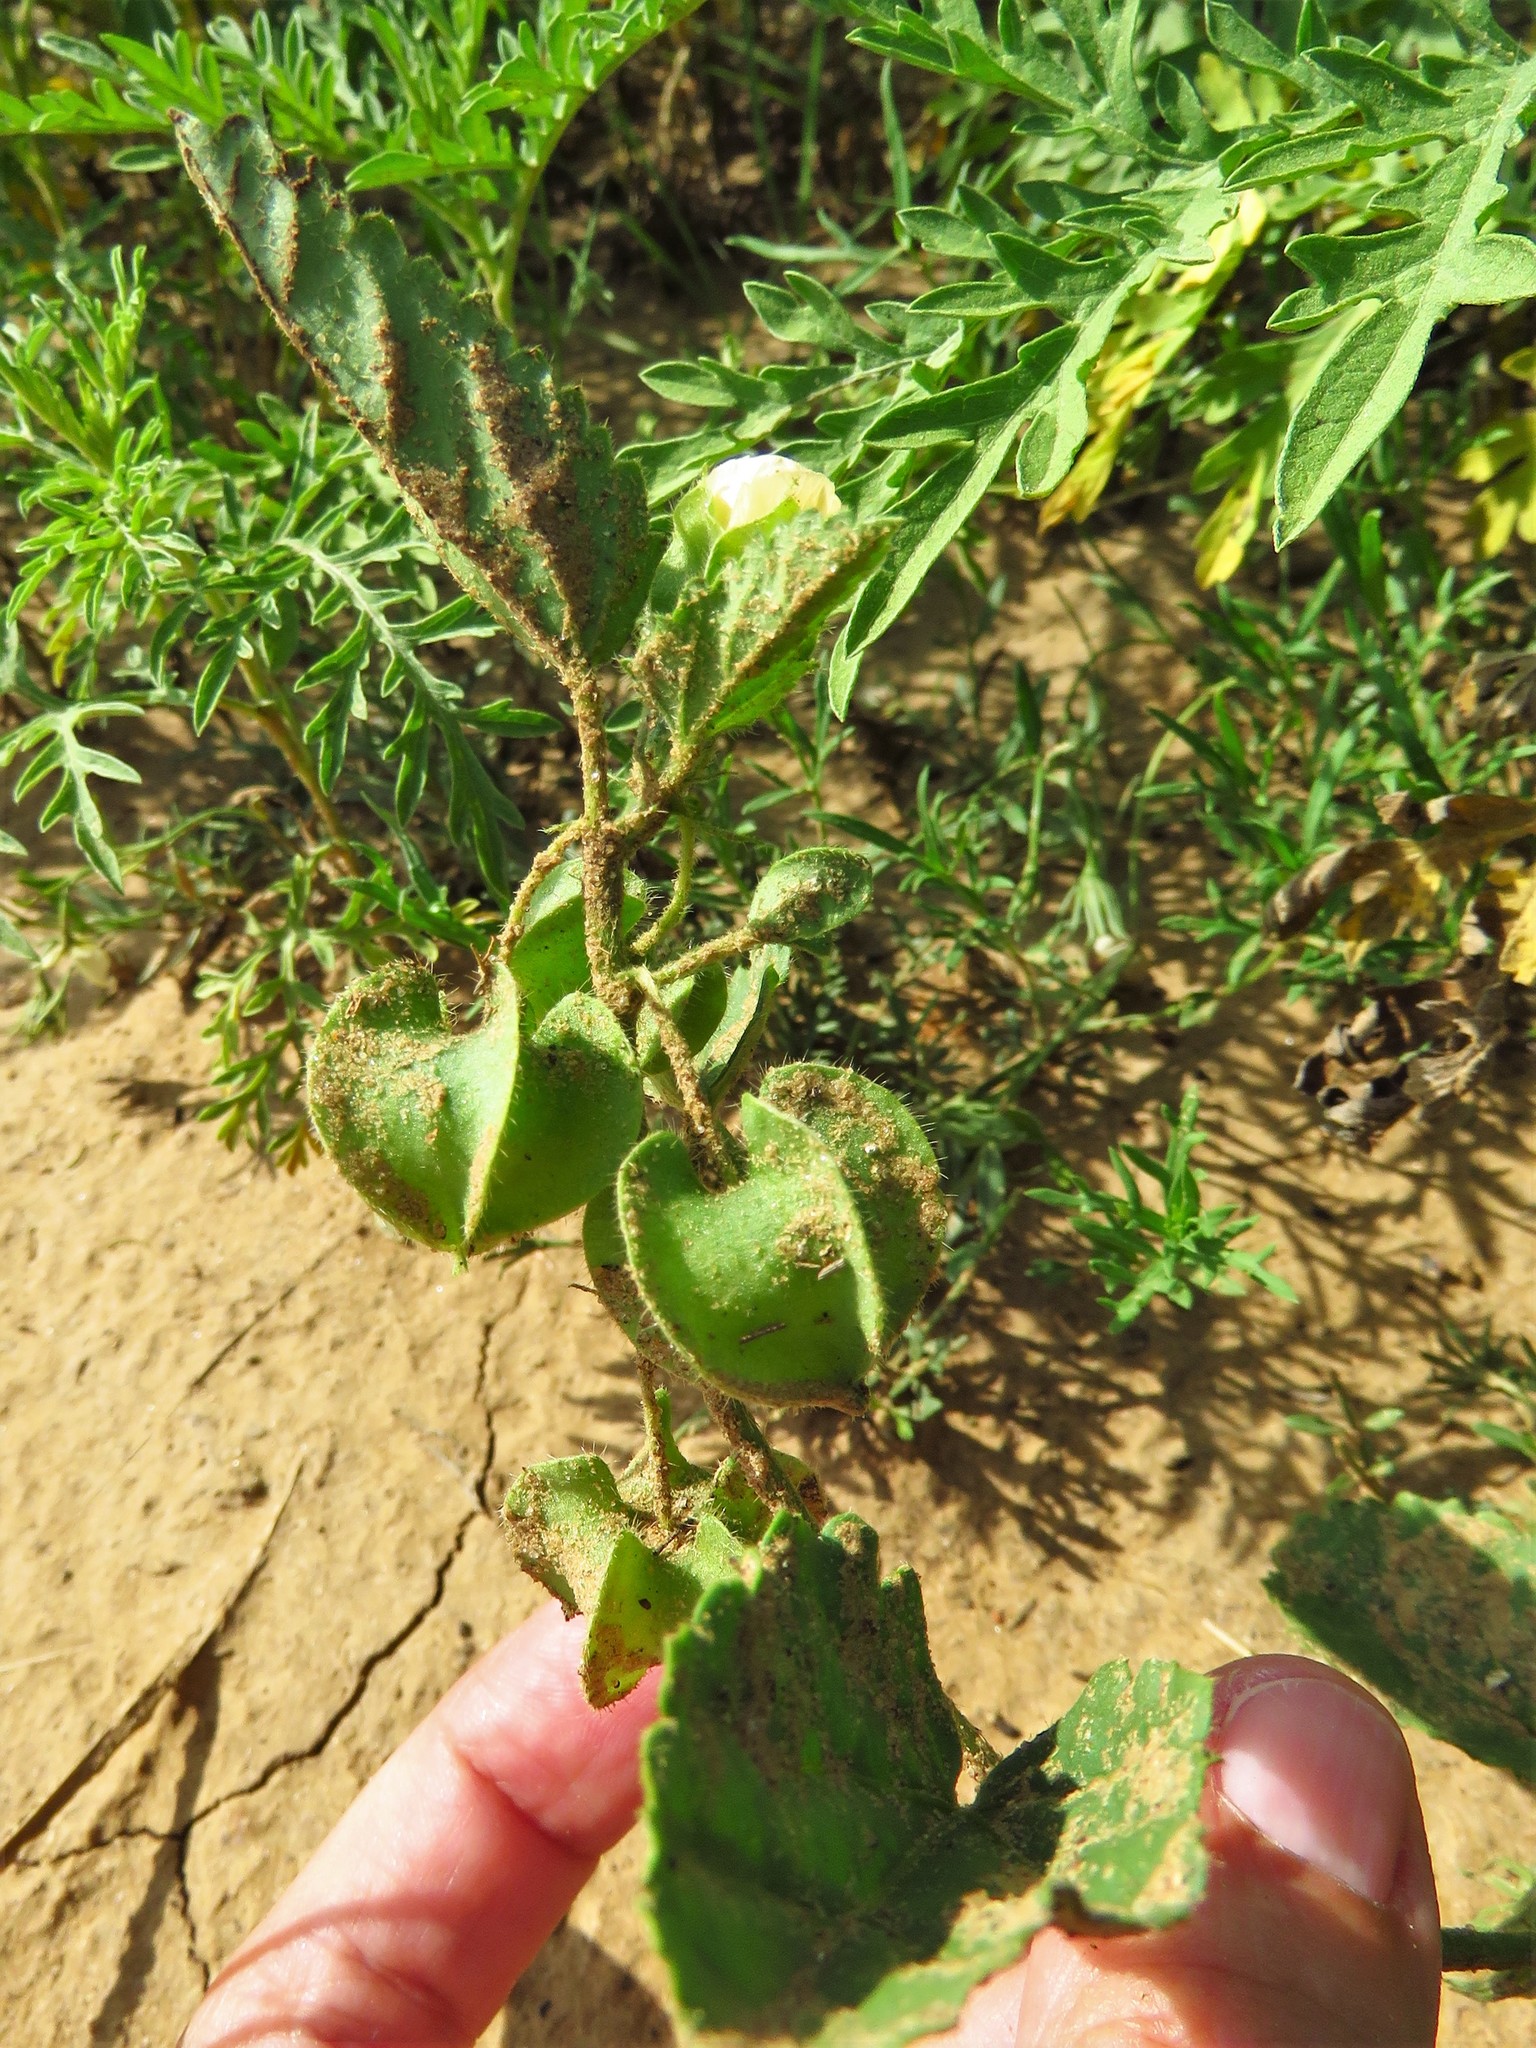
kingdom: Plantae
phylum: Tracheophyta
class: Magnoliopsida
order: Malvales
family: Malvaceae
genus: Rhynchosida
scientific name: Rhynchosida physocalyx
